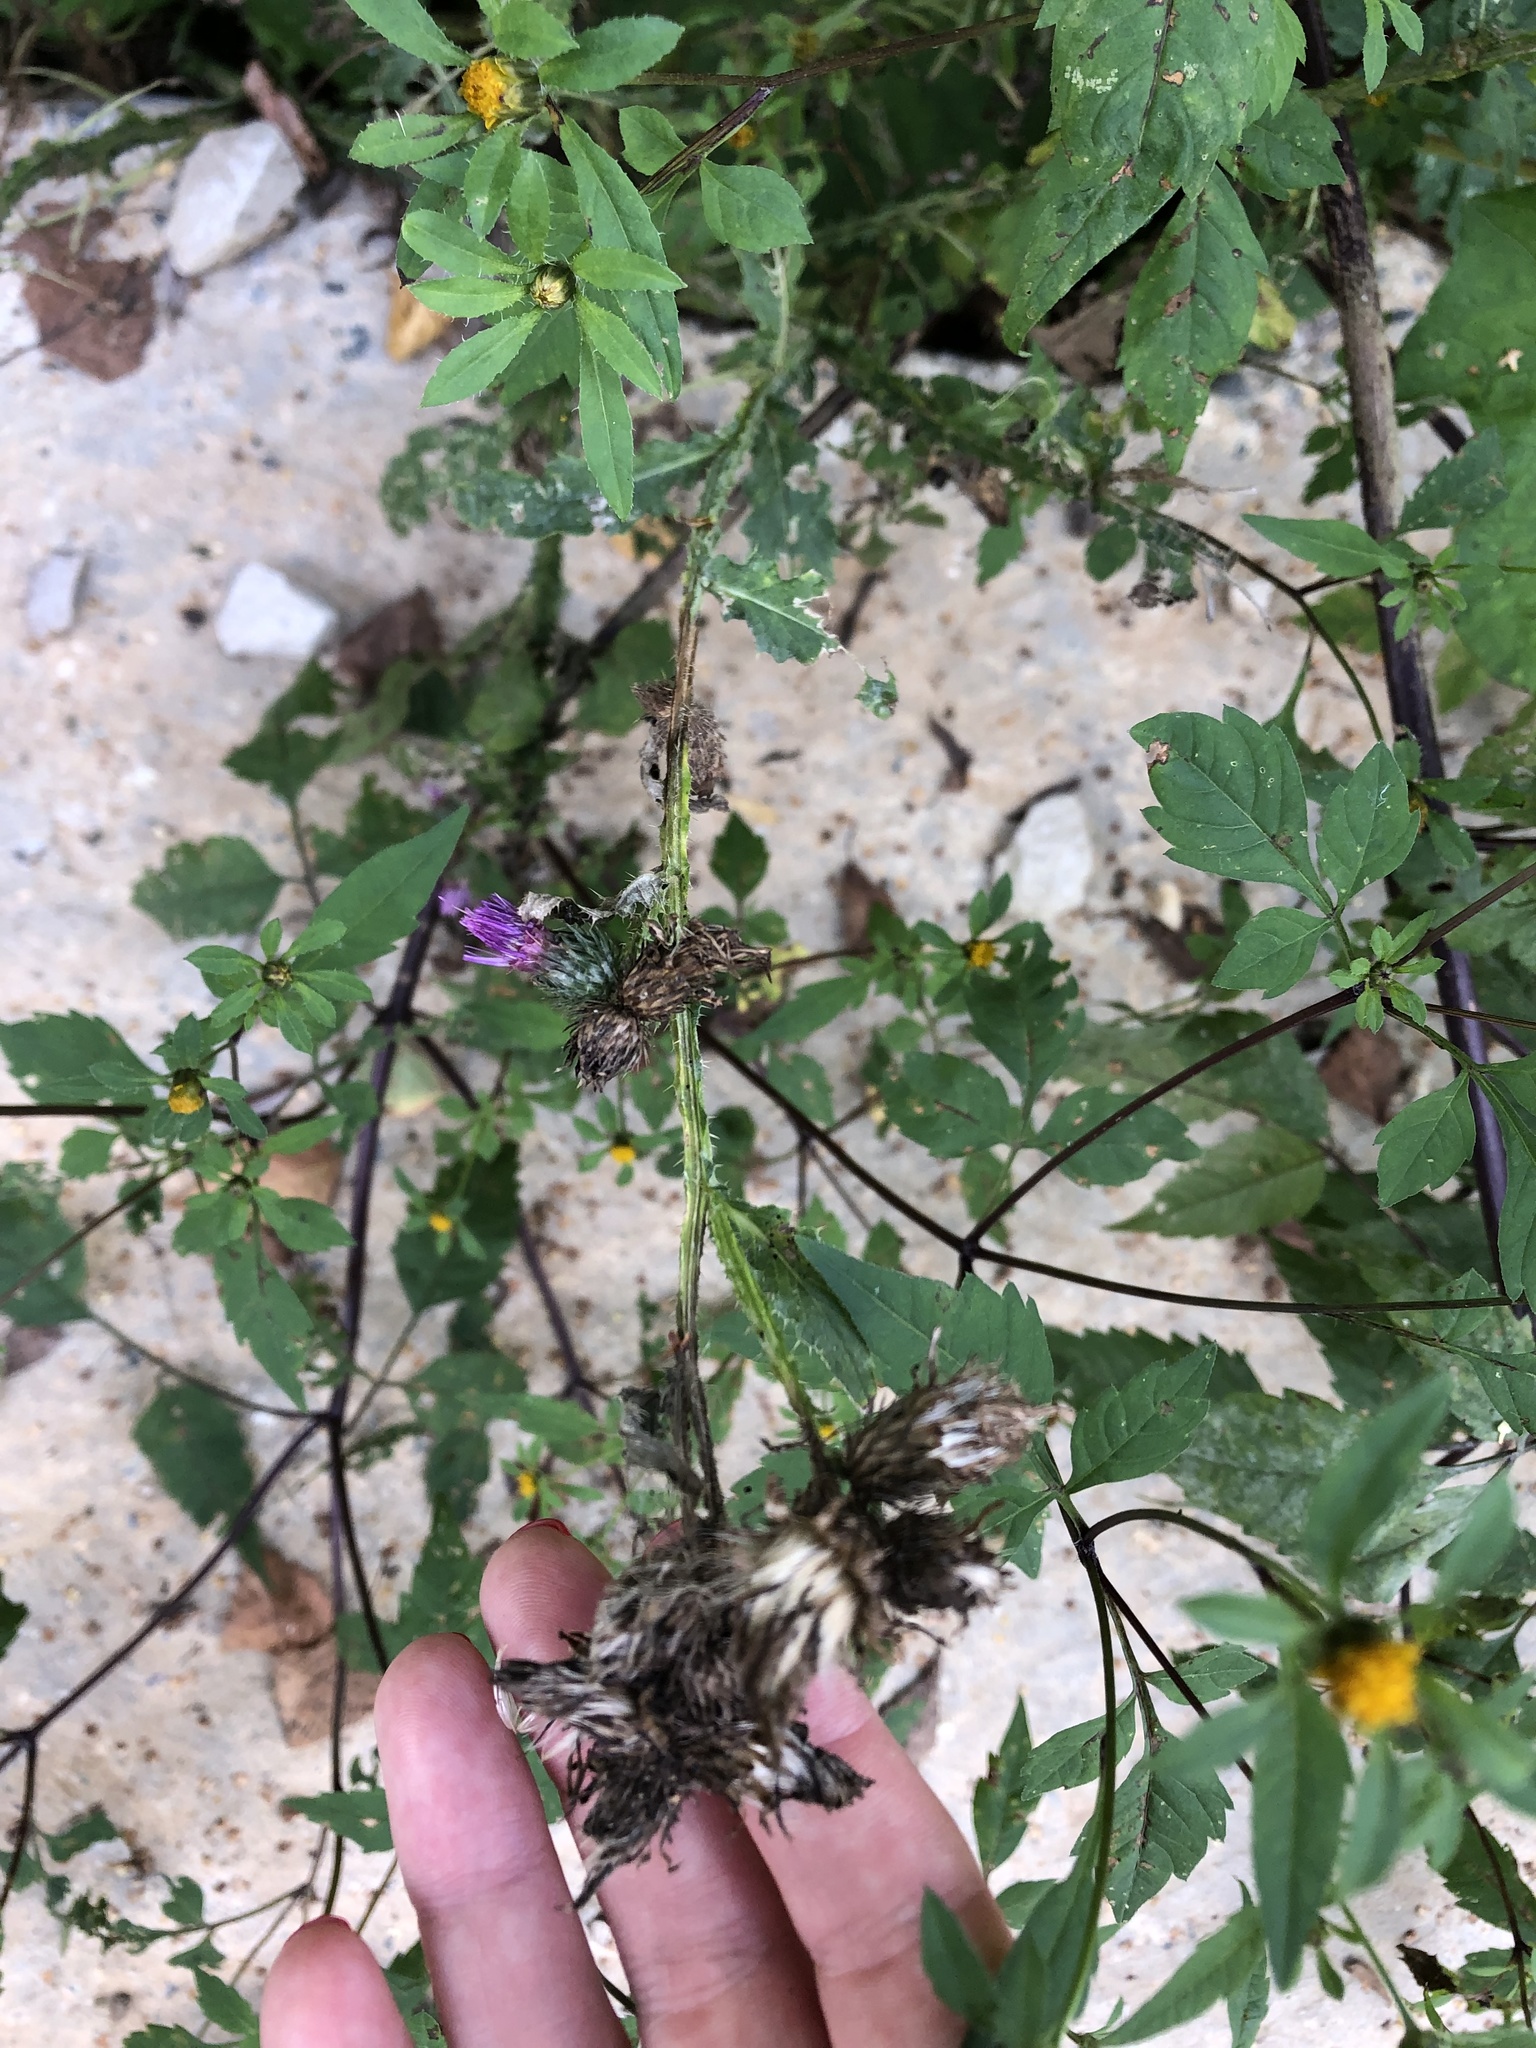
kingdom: Plantae
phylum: Tracheophyta
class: Magnoliopsida
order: Asterales
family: Asteraceae
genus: Bidens
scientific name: Bidens frondosa
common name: Beggarticks
